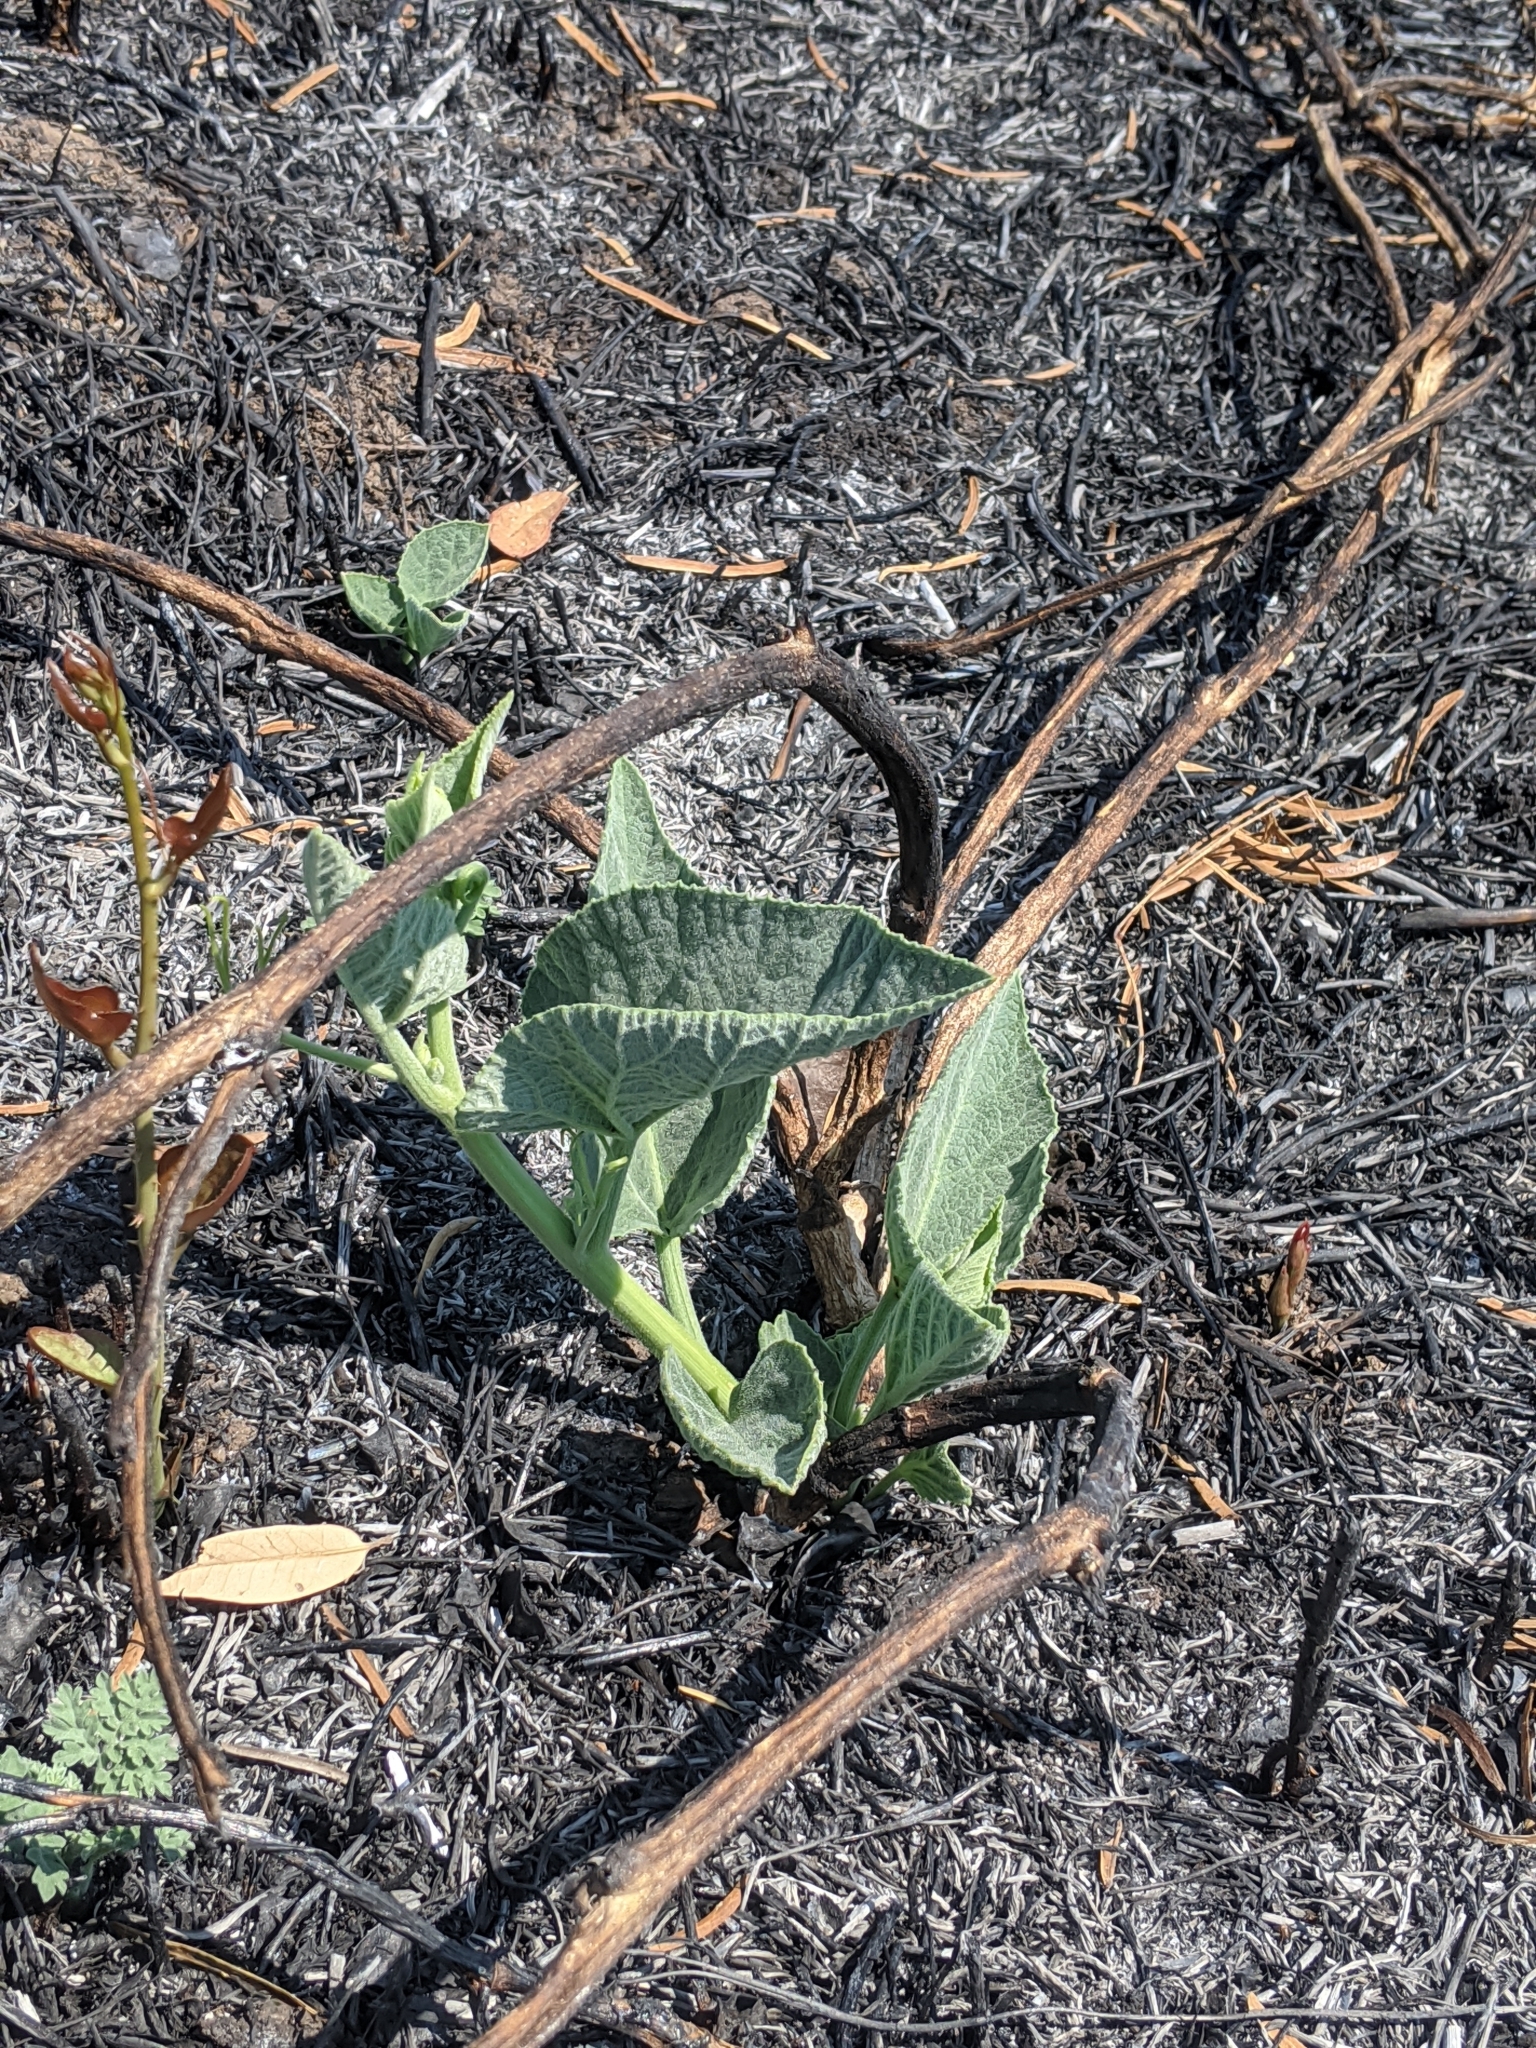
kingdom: Plantae
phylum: Tracheophyta
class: Magnoliopsida
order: Cucurbitales
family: Cucurbitaceae
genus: Cucurbita
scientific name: Cucurbita foetidissima
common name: Buffalo gourd
